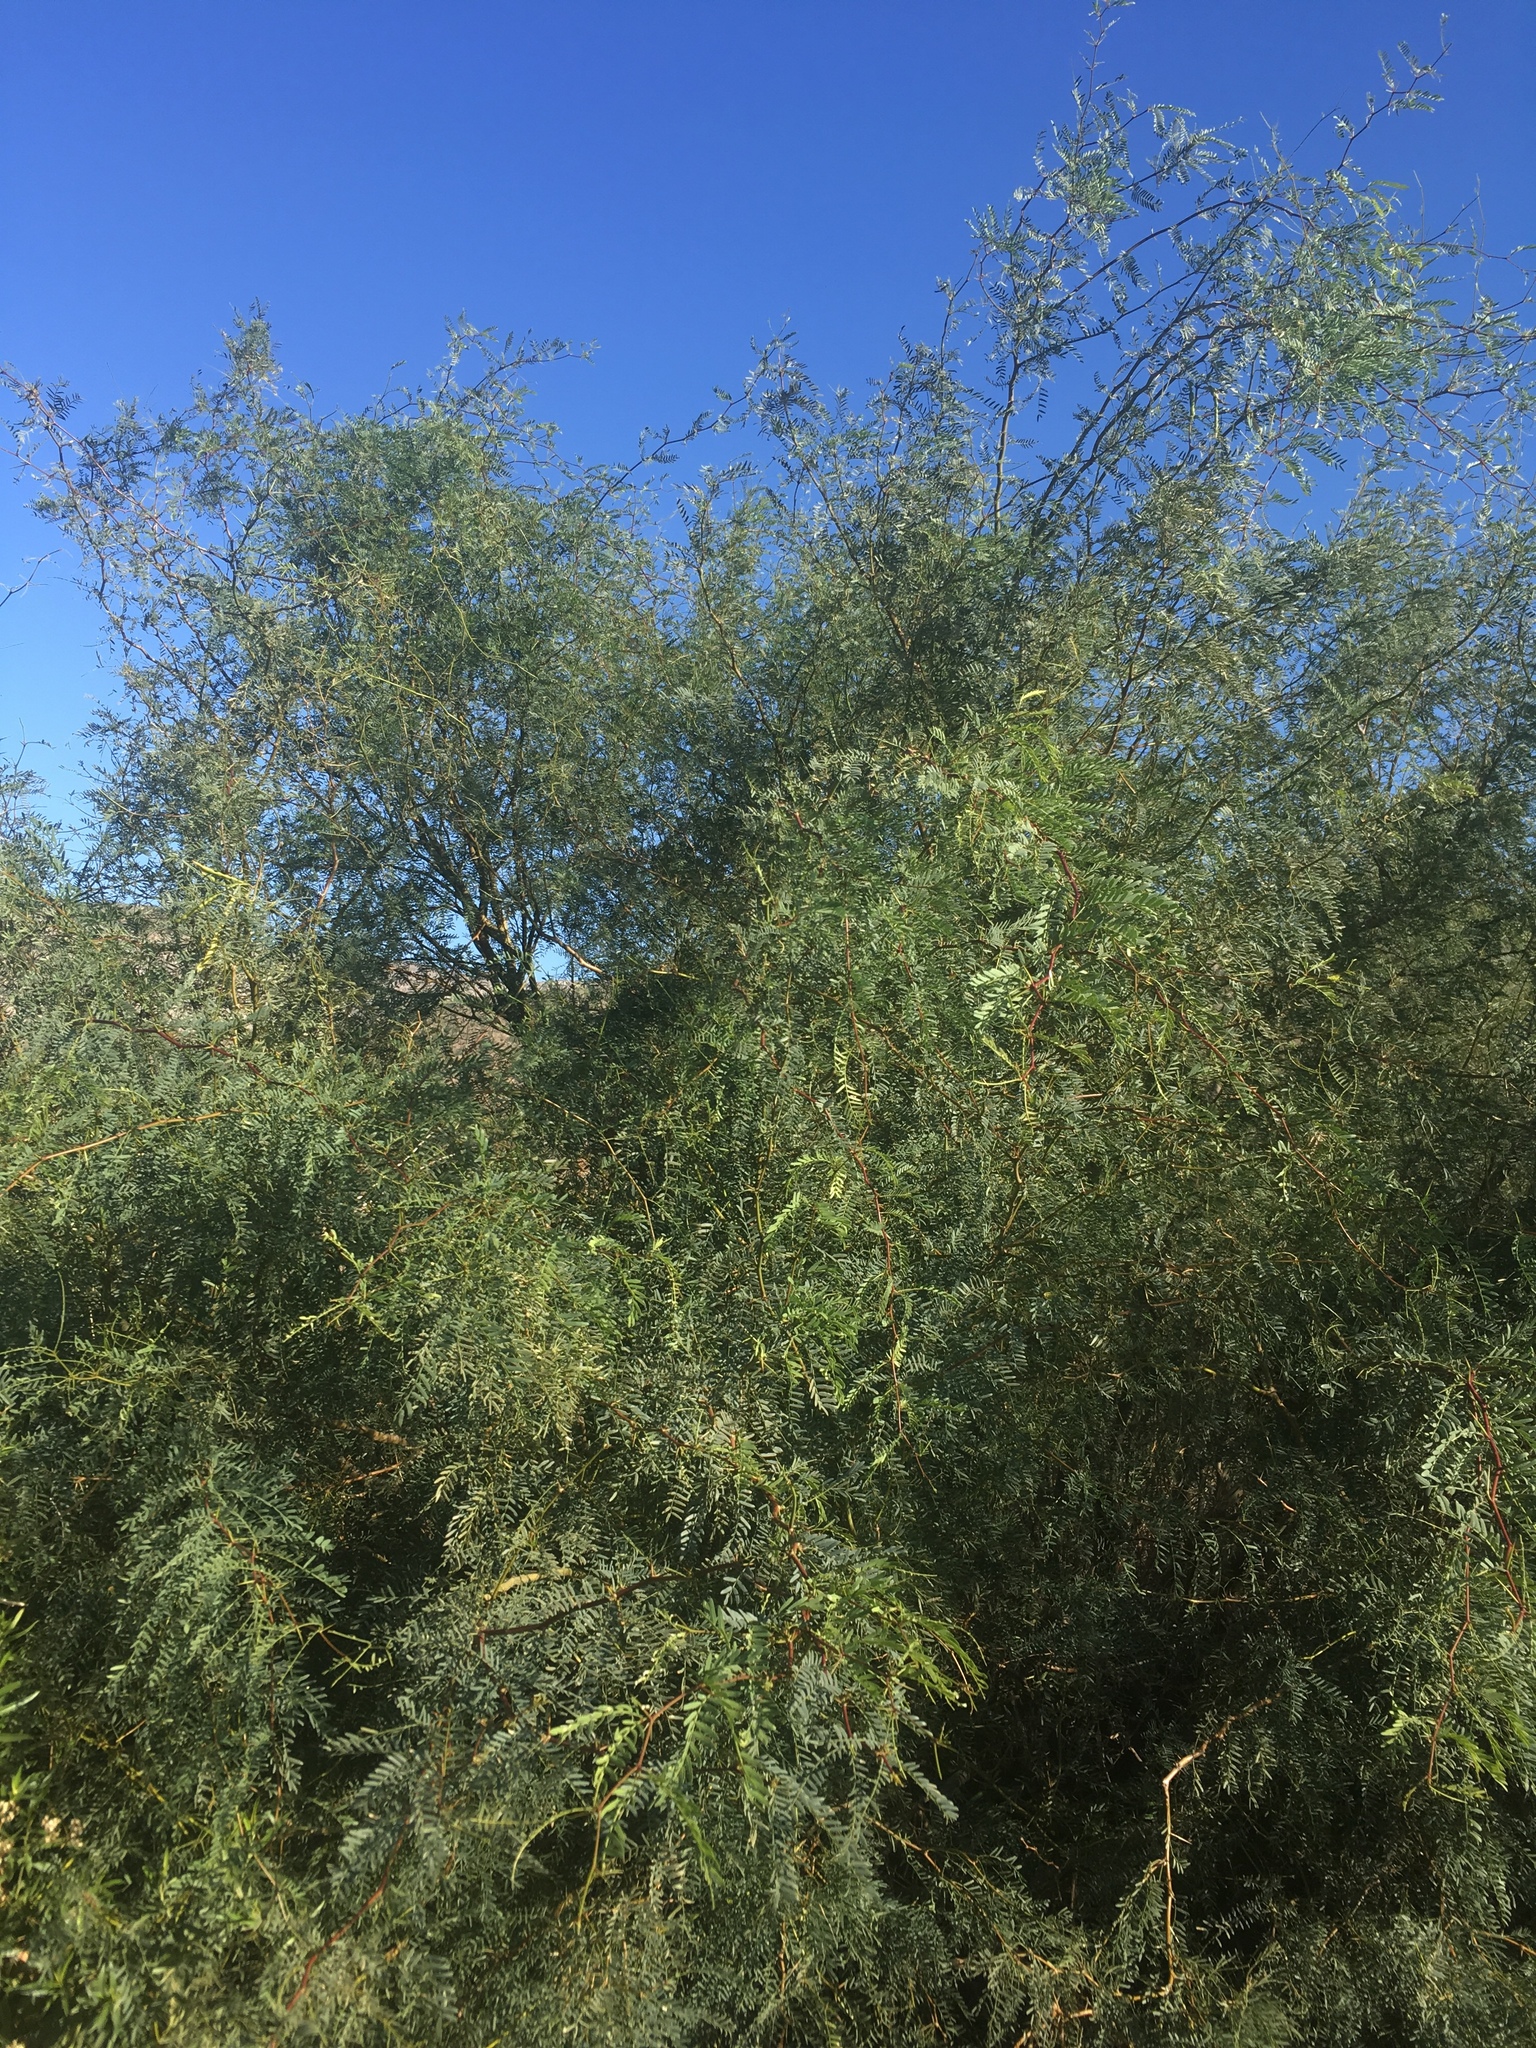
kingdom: Plantae
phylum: Tracheophyta
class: Magnoliopsida
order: Fabales
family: Fabaceae
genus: Prosopis
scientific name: Prosopis pubescens
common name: Screw-bean
